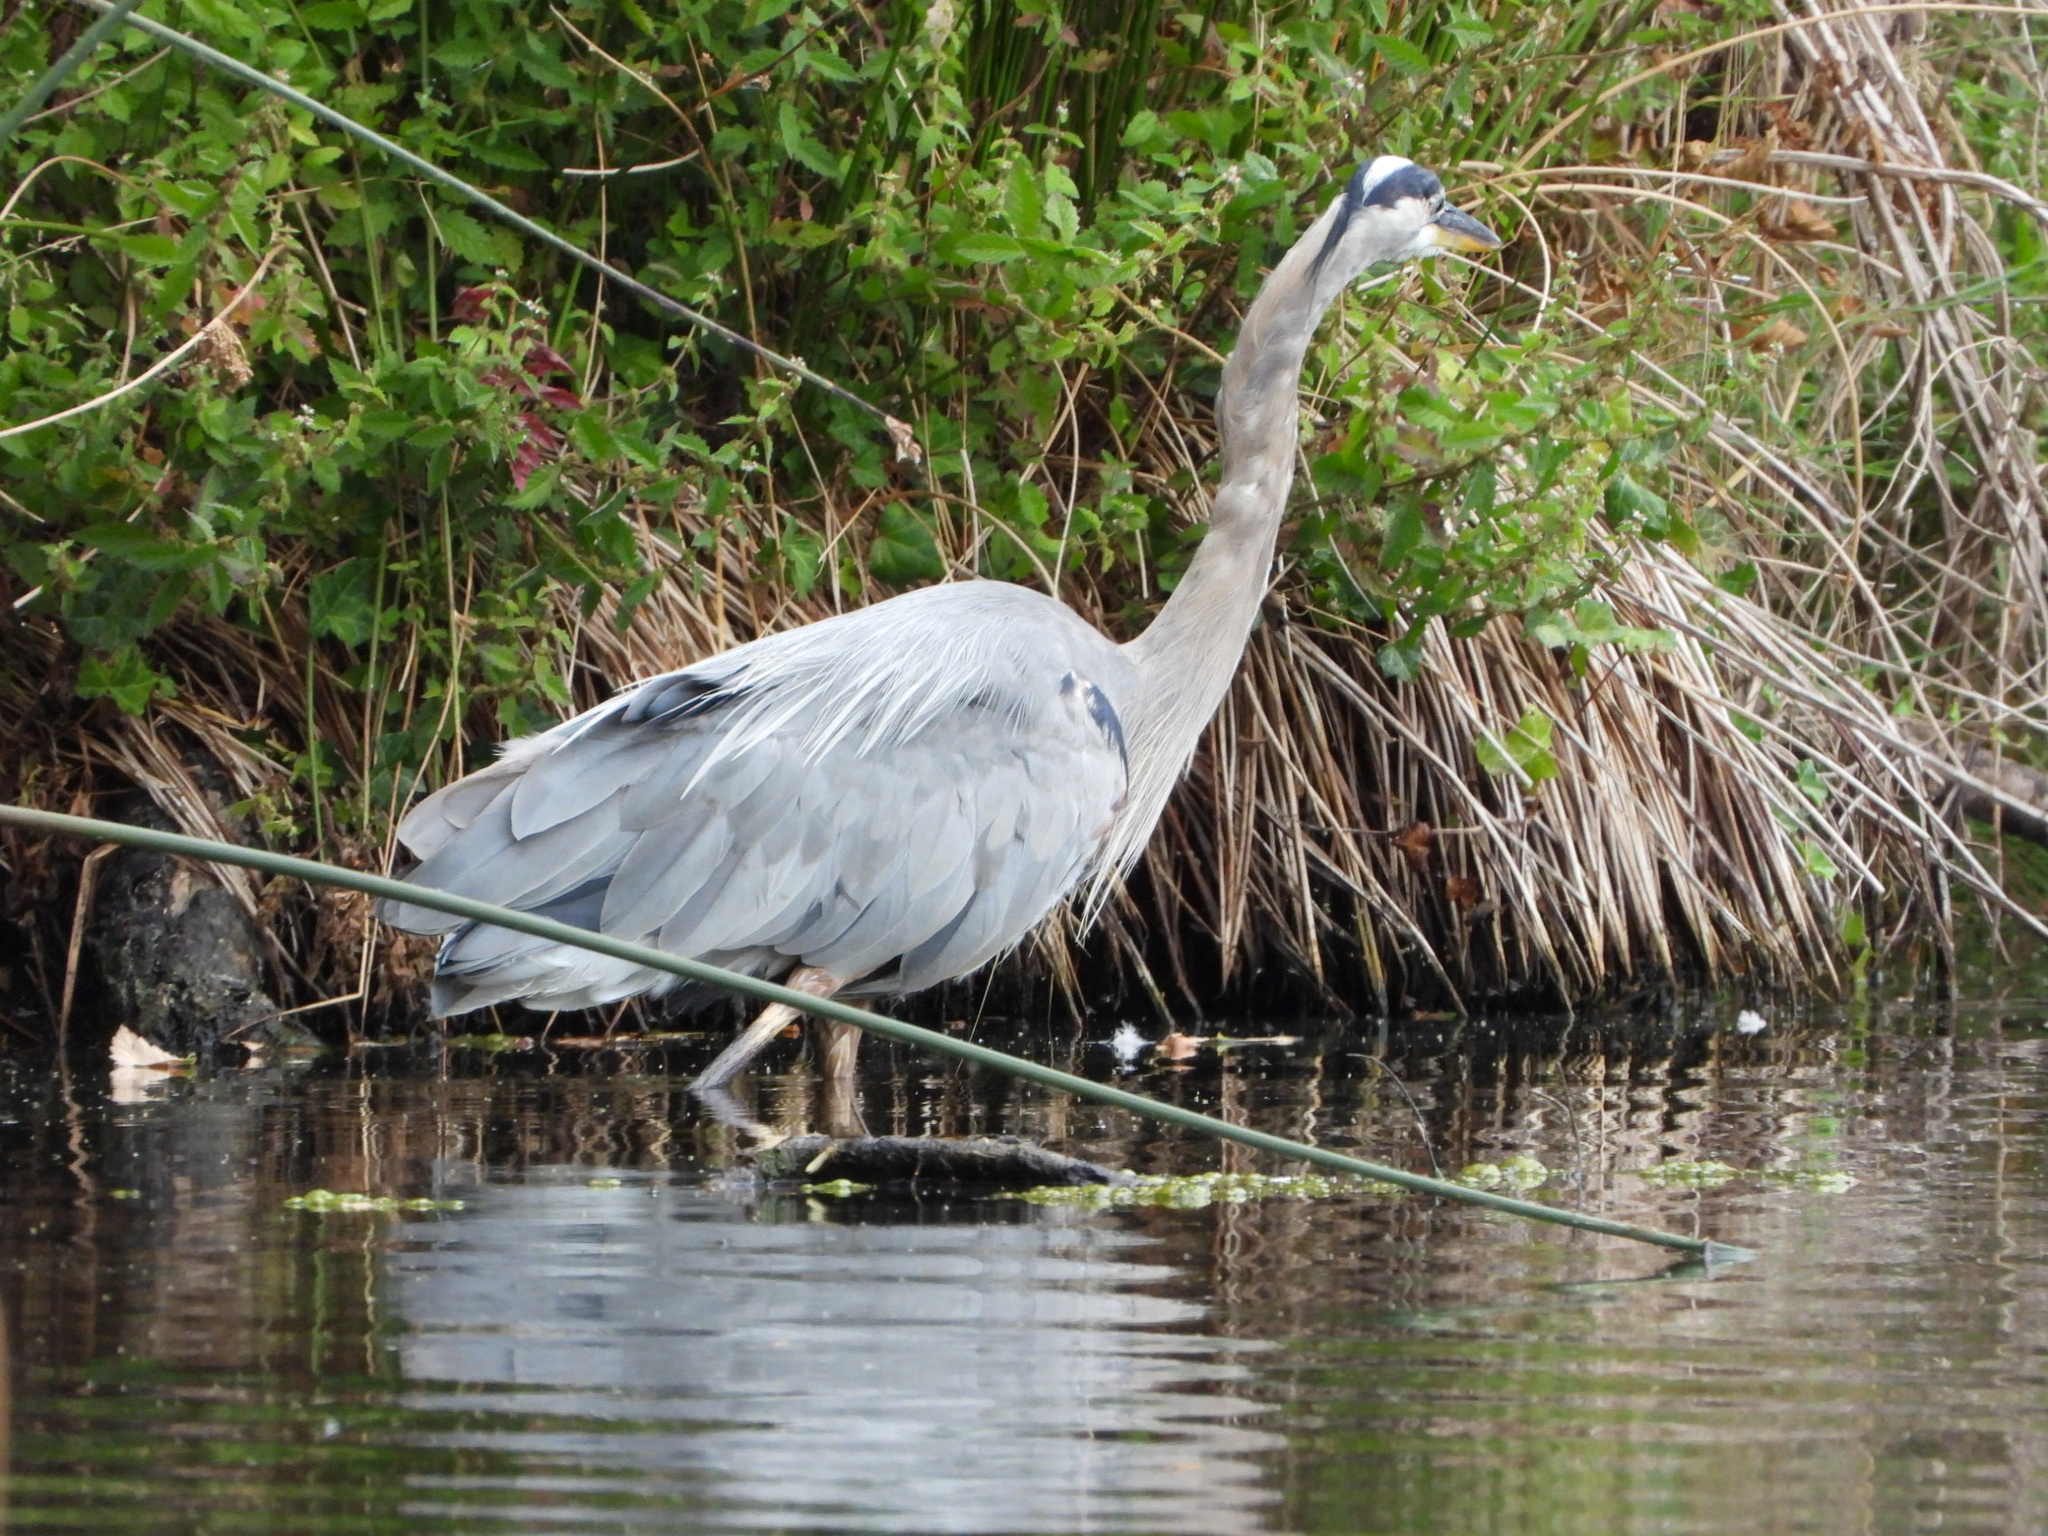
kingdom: Animalia
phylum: Chordata
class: Aves
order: Pelecaniformes
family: Ardeidae
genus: Ardea
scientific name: Ardea herodias
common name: Great blue heron
